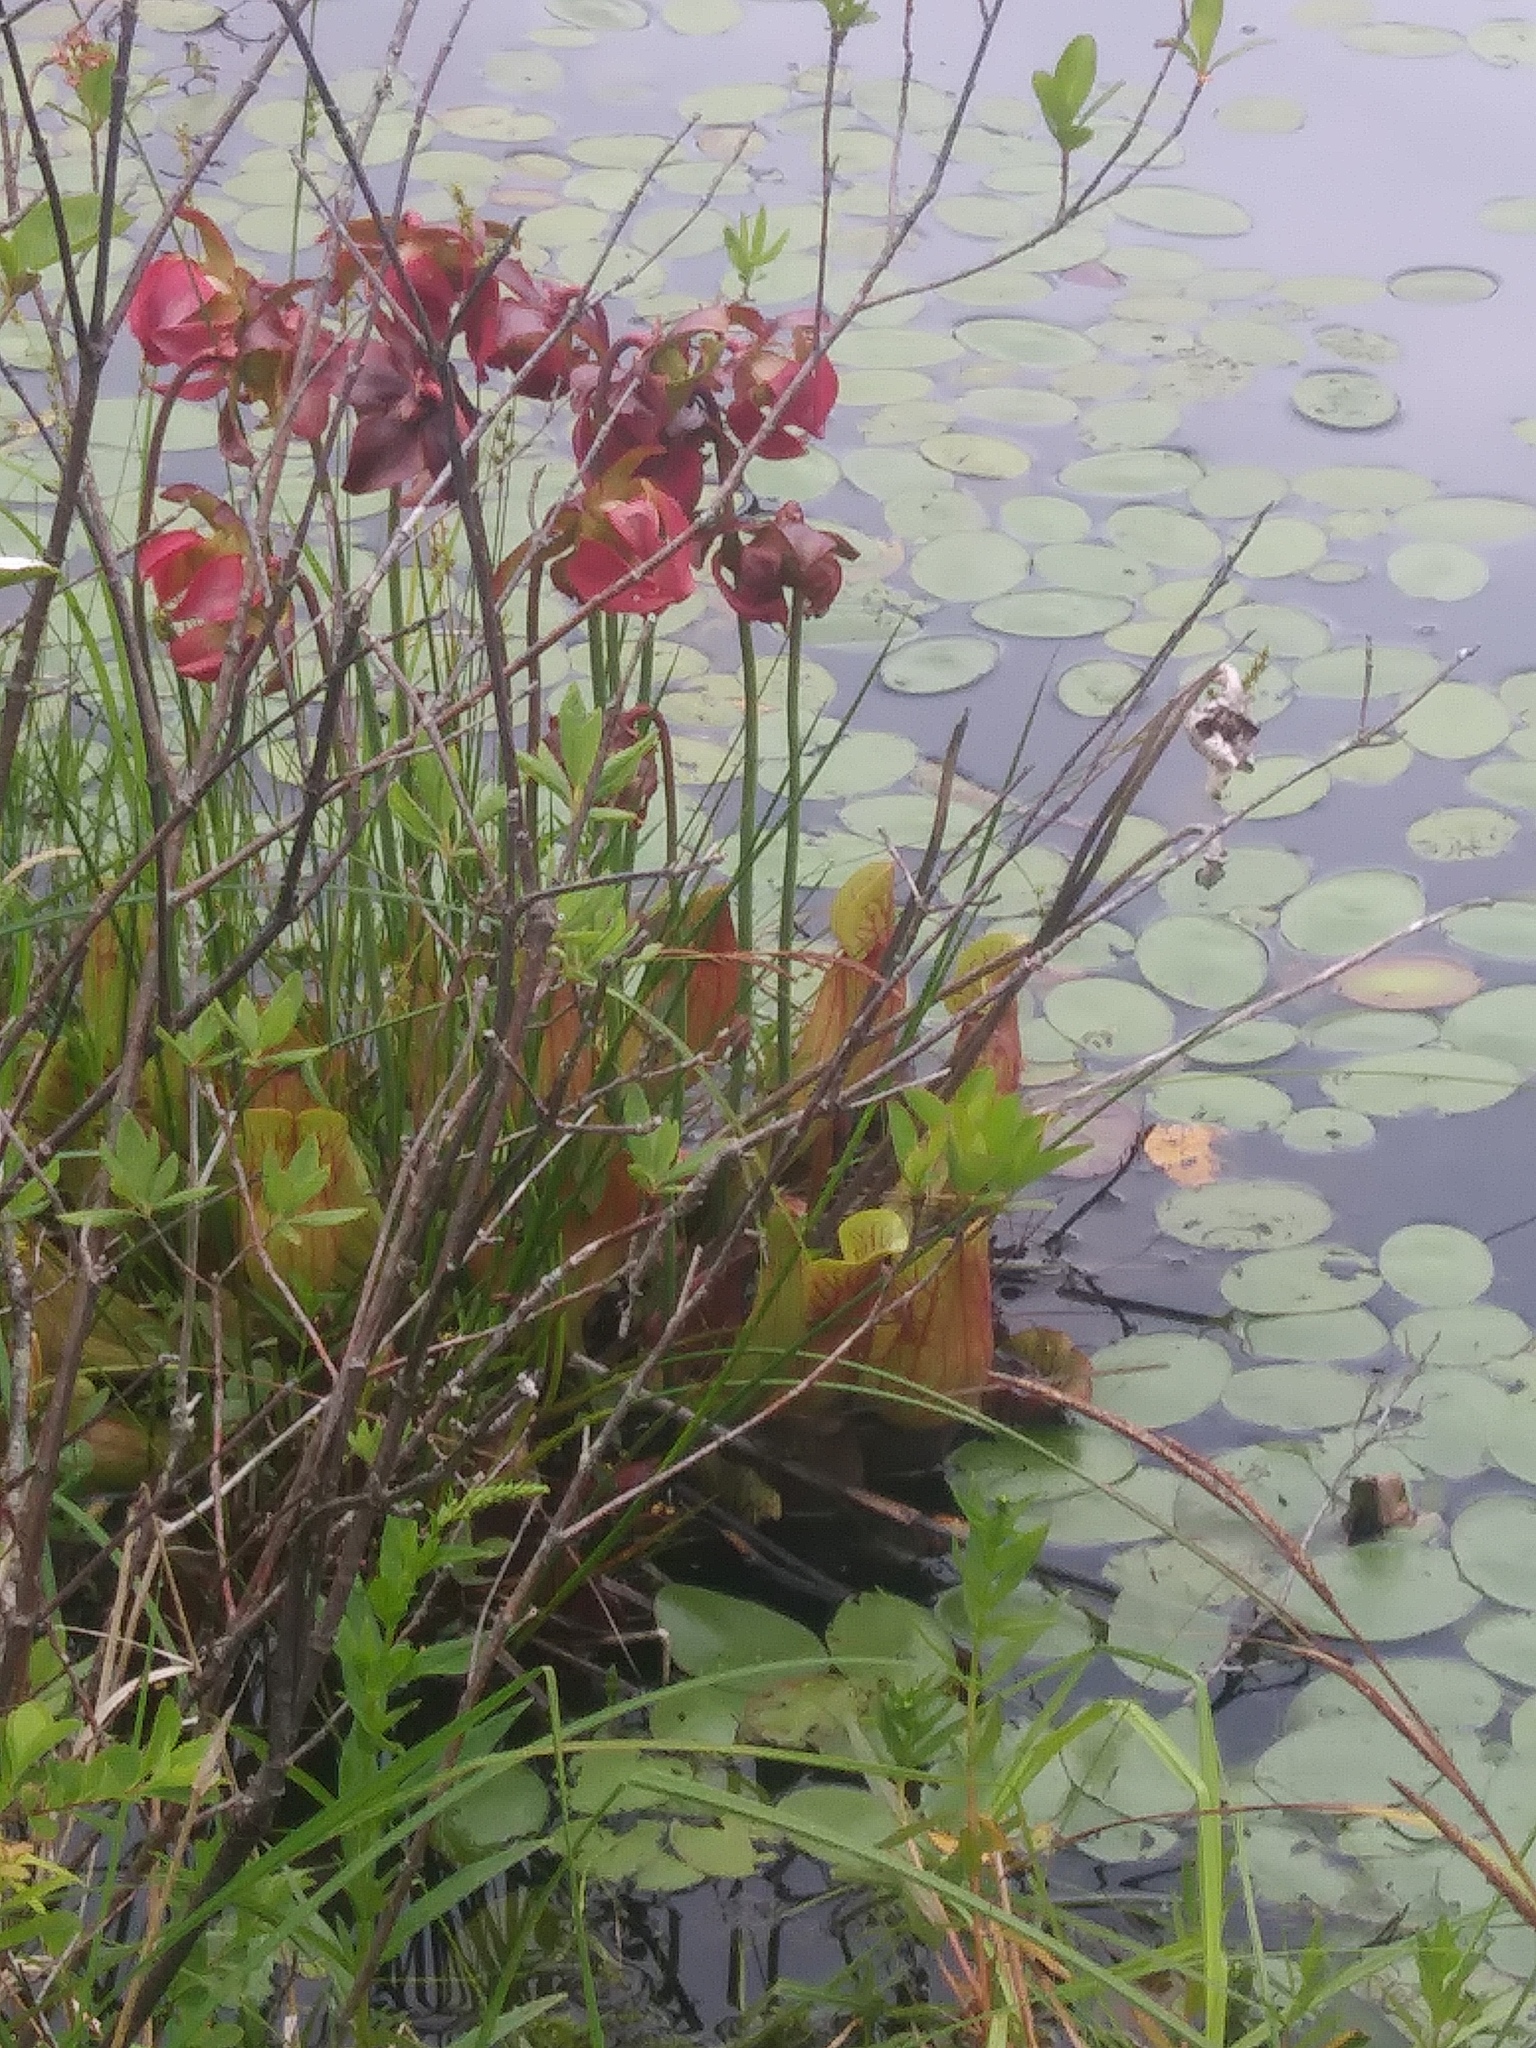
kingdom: Plantae
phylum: Tracheophyta
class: Magnoliopsida
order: Ericales
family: Sarraceniaceae
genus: Sarracenia
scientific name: Sarracenia purpurea
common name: Pitcherplant
